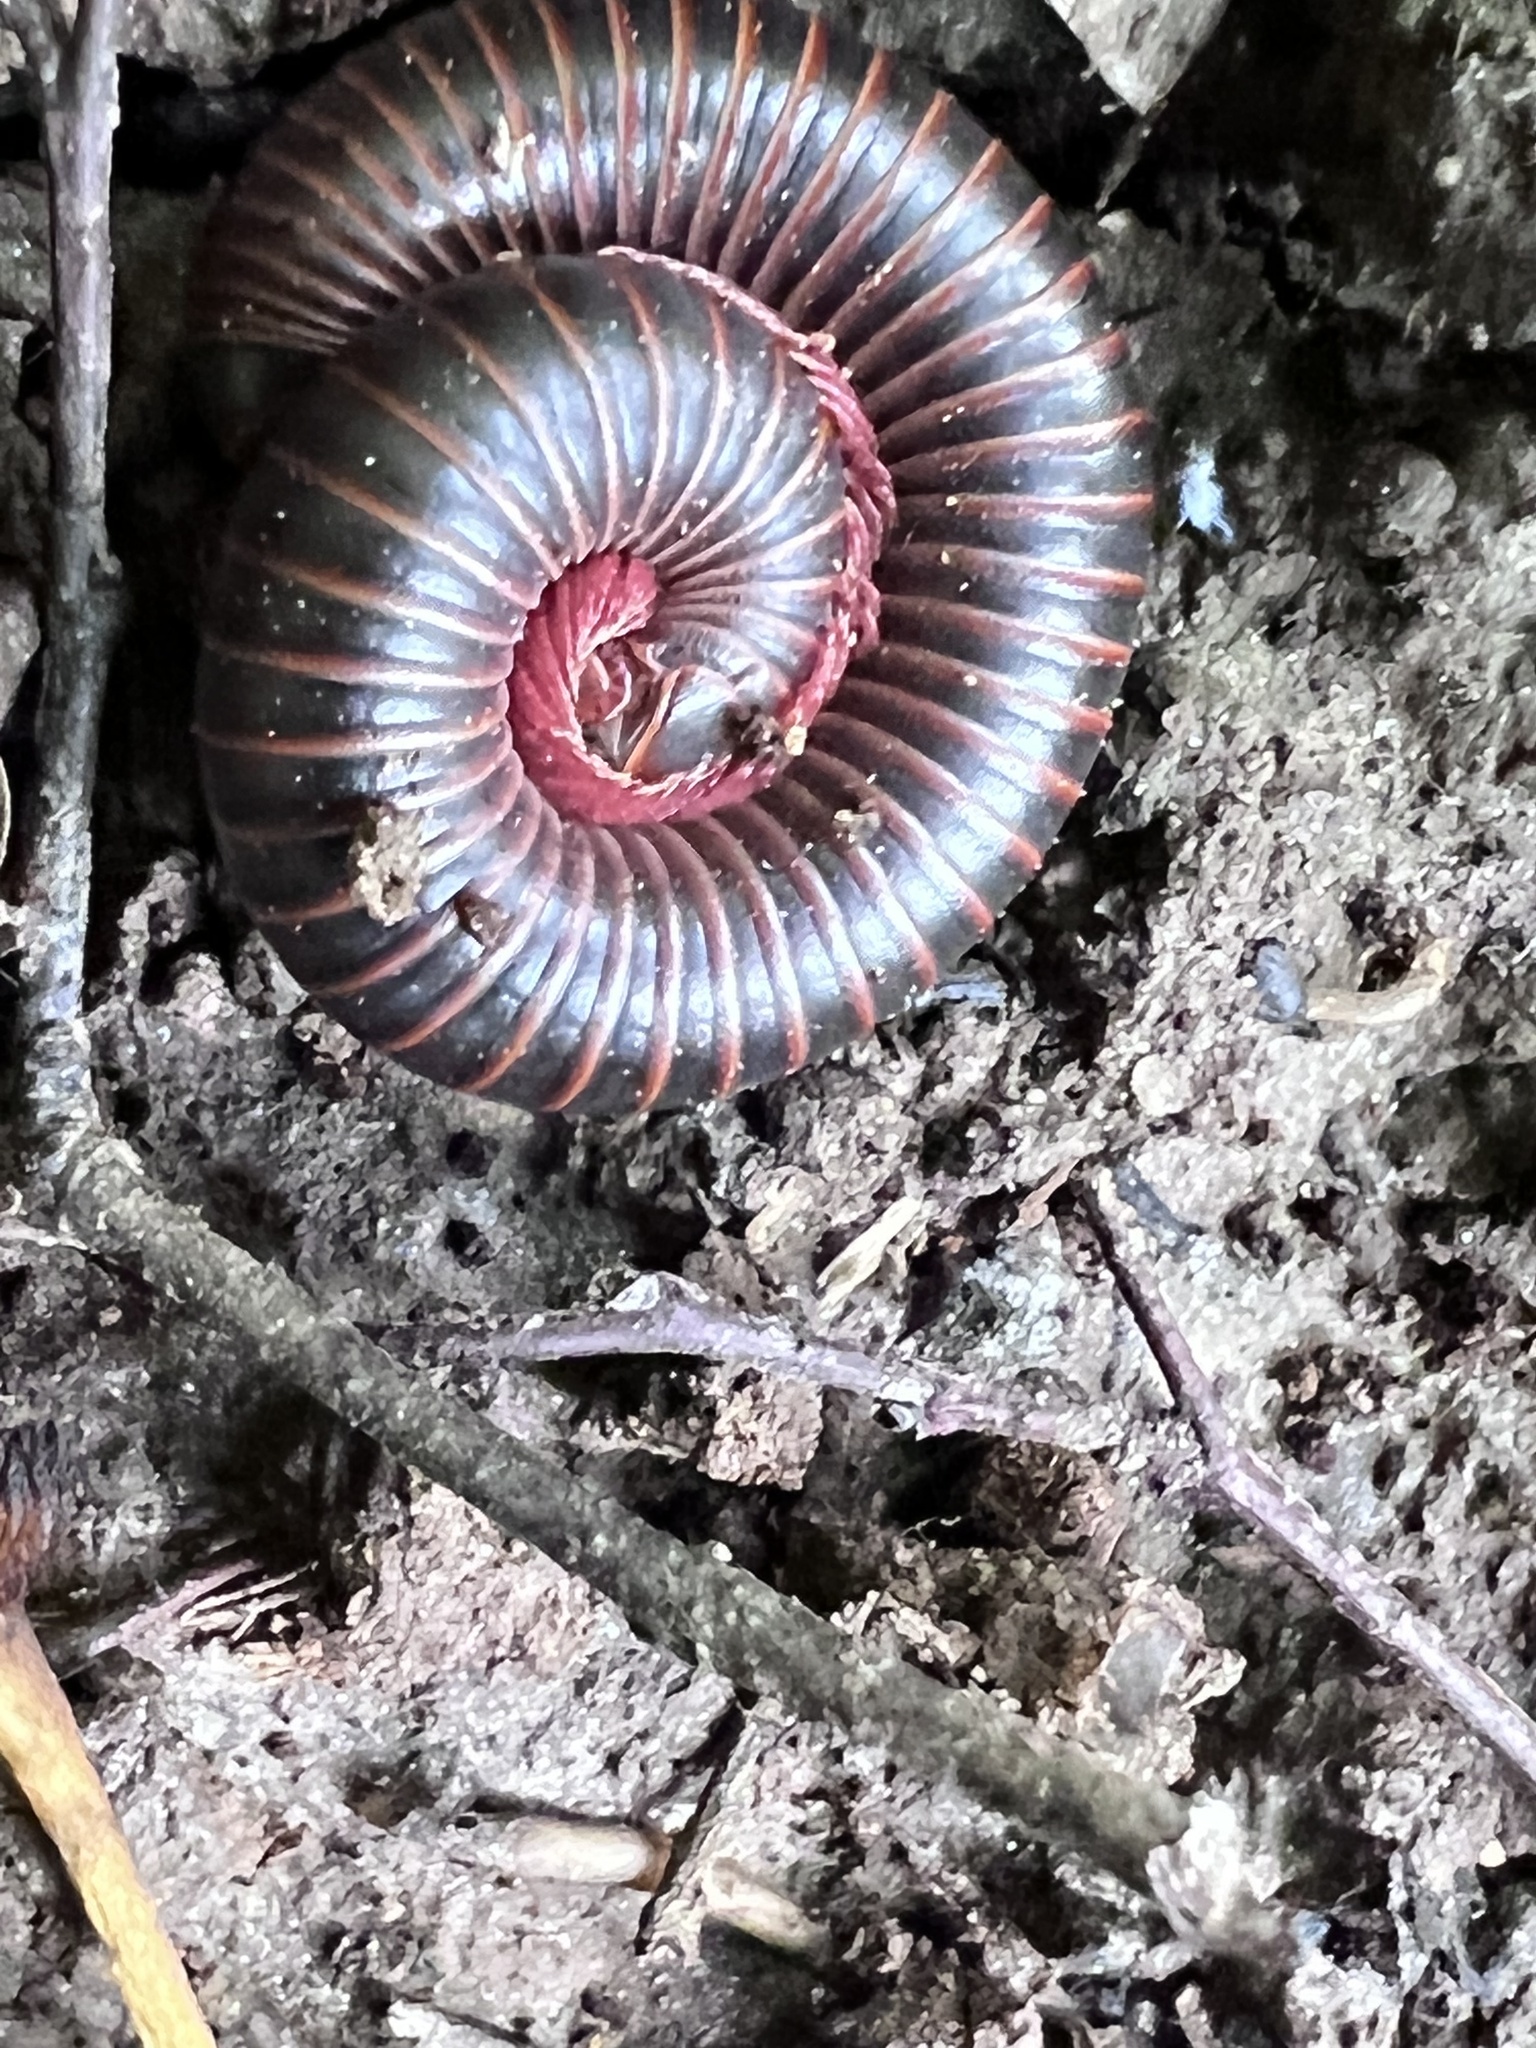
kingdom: Animalia
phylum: Arthropoda
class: Diplopoda
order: Spirobolida
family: Spirobolidae
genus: Narceus
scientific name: Narceus
